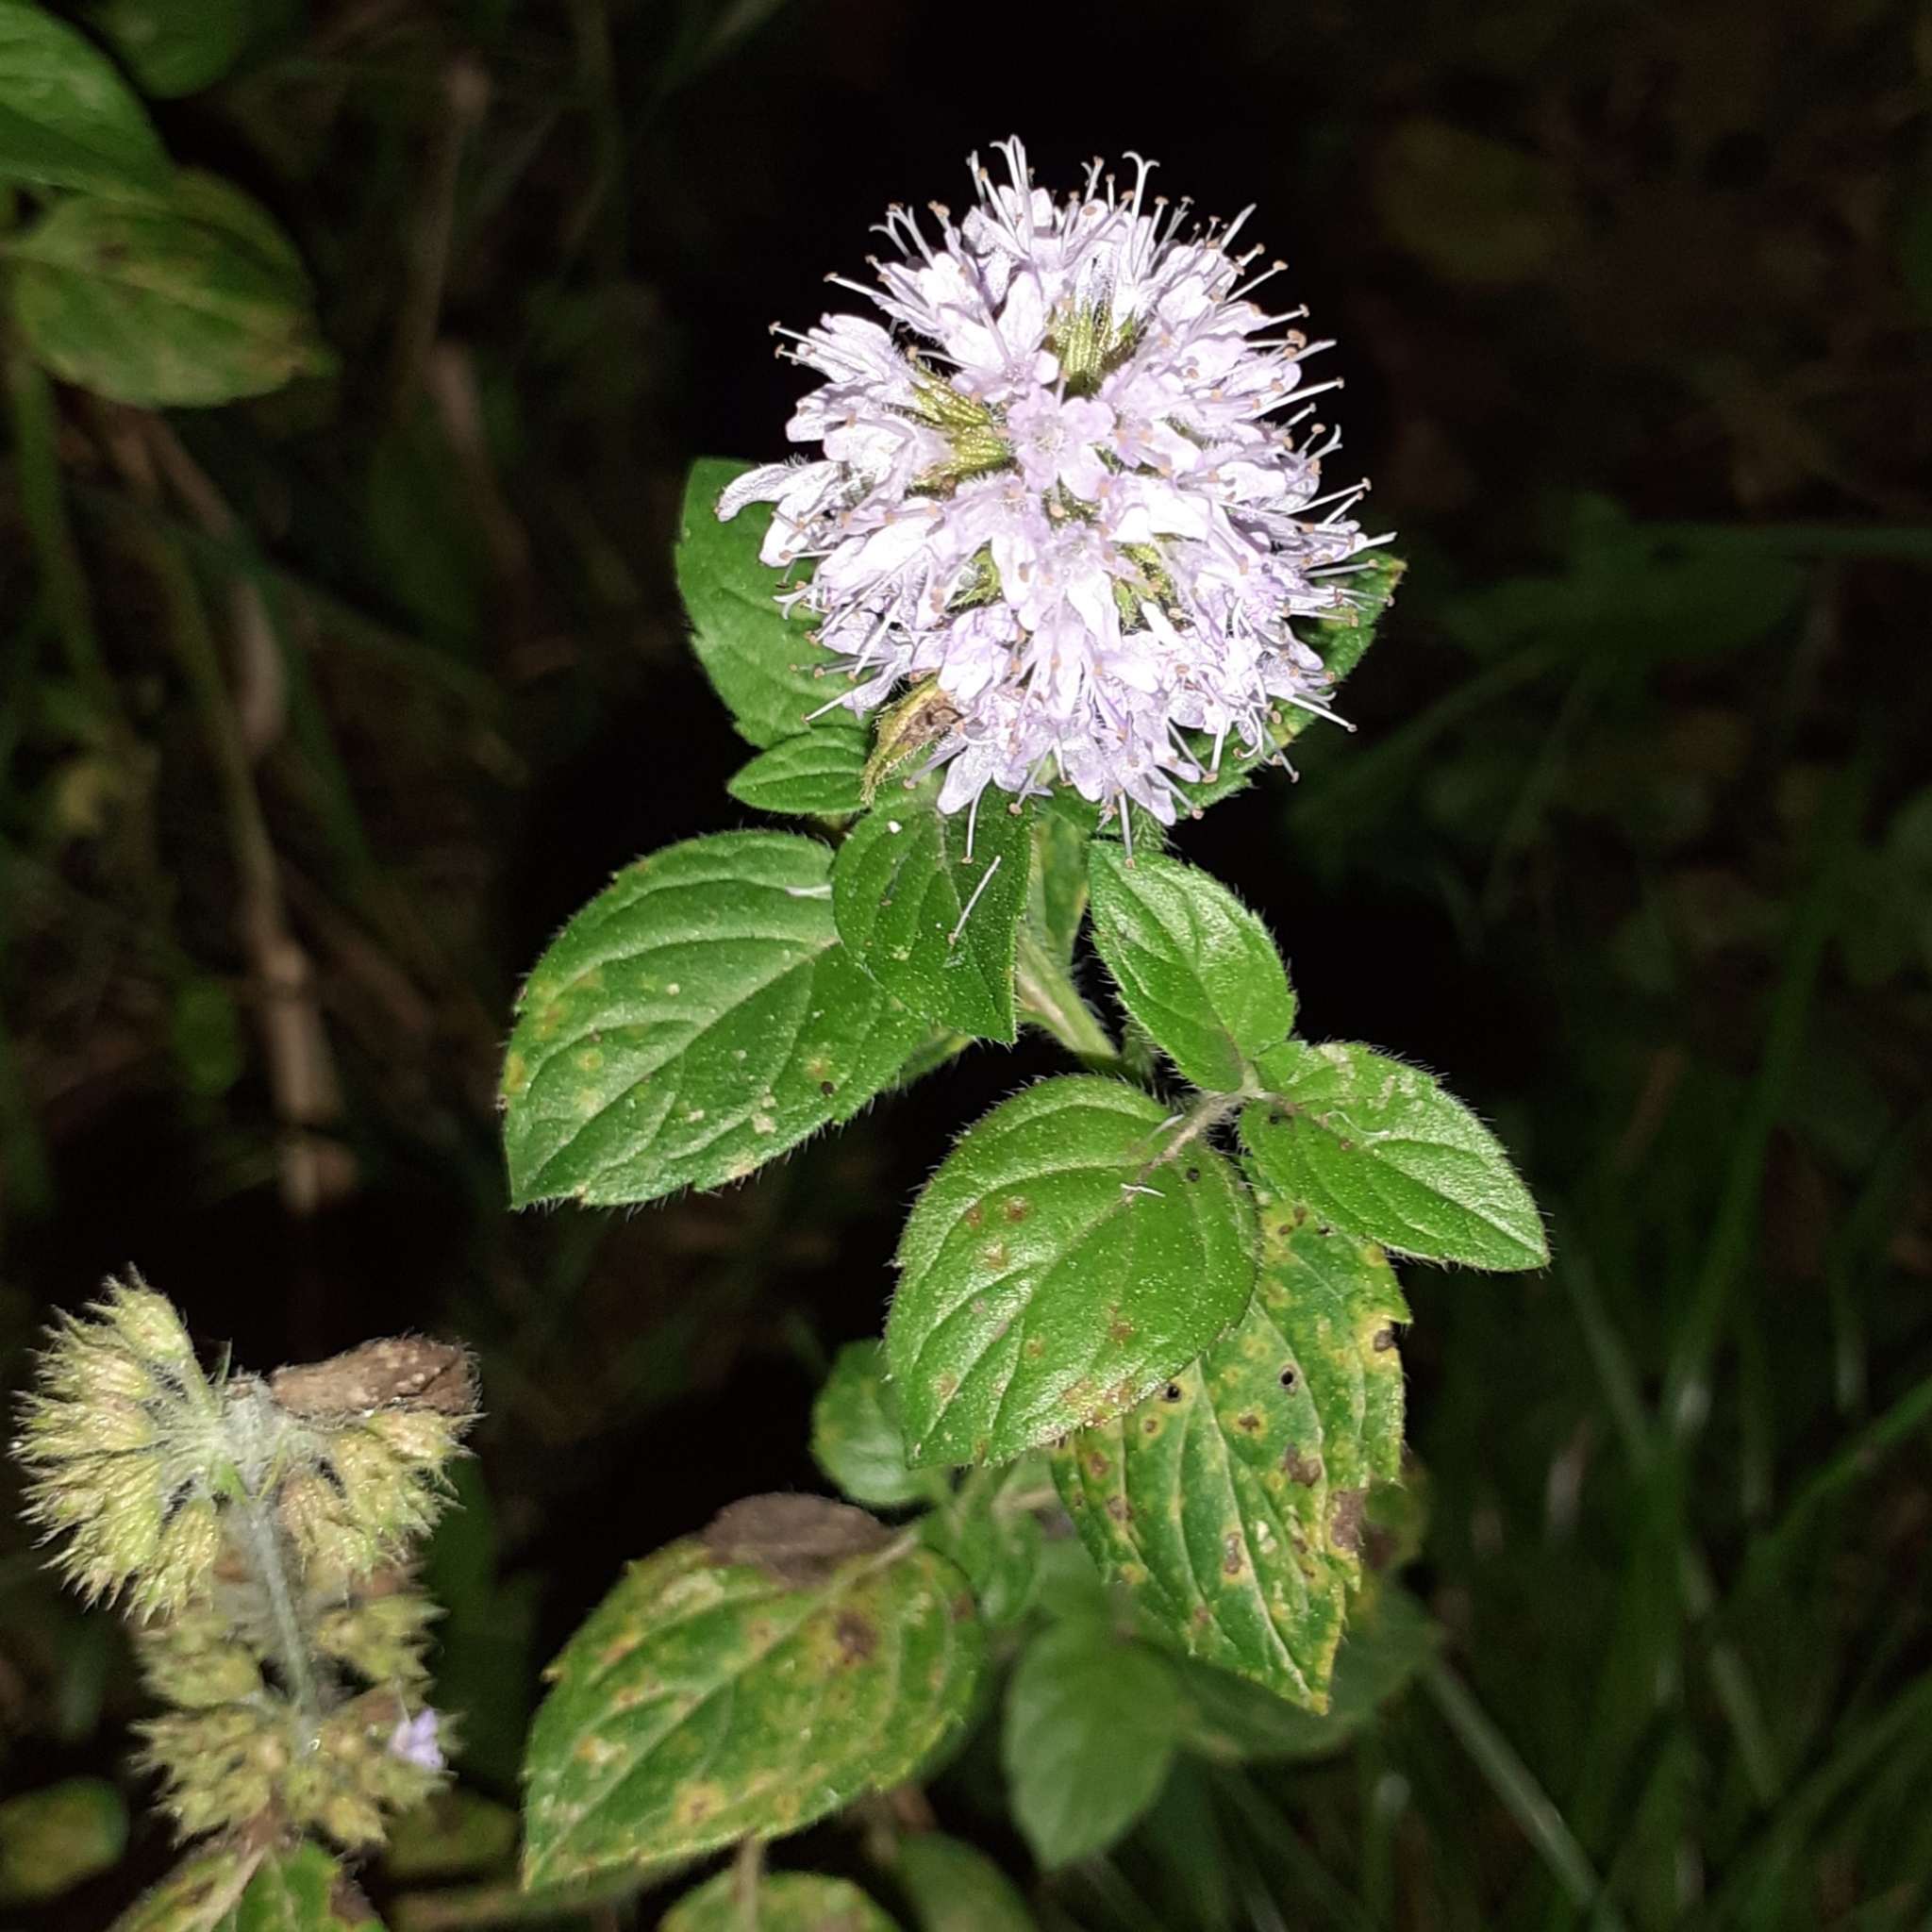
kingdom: Plantae
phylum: Tracheophyta
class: Magnoliopsida
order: Lamiales
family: Lamiaceae
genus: Mentha
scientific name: Mentha aquatica
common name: Water mint
